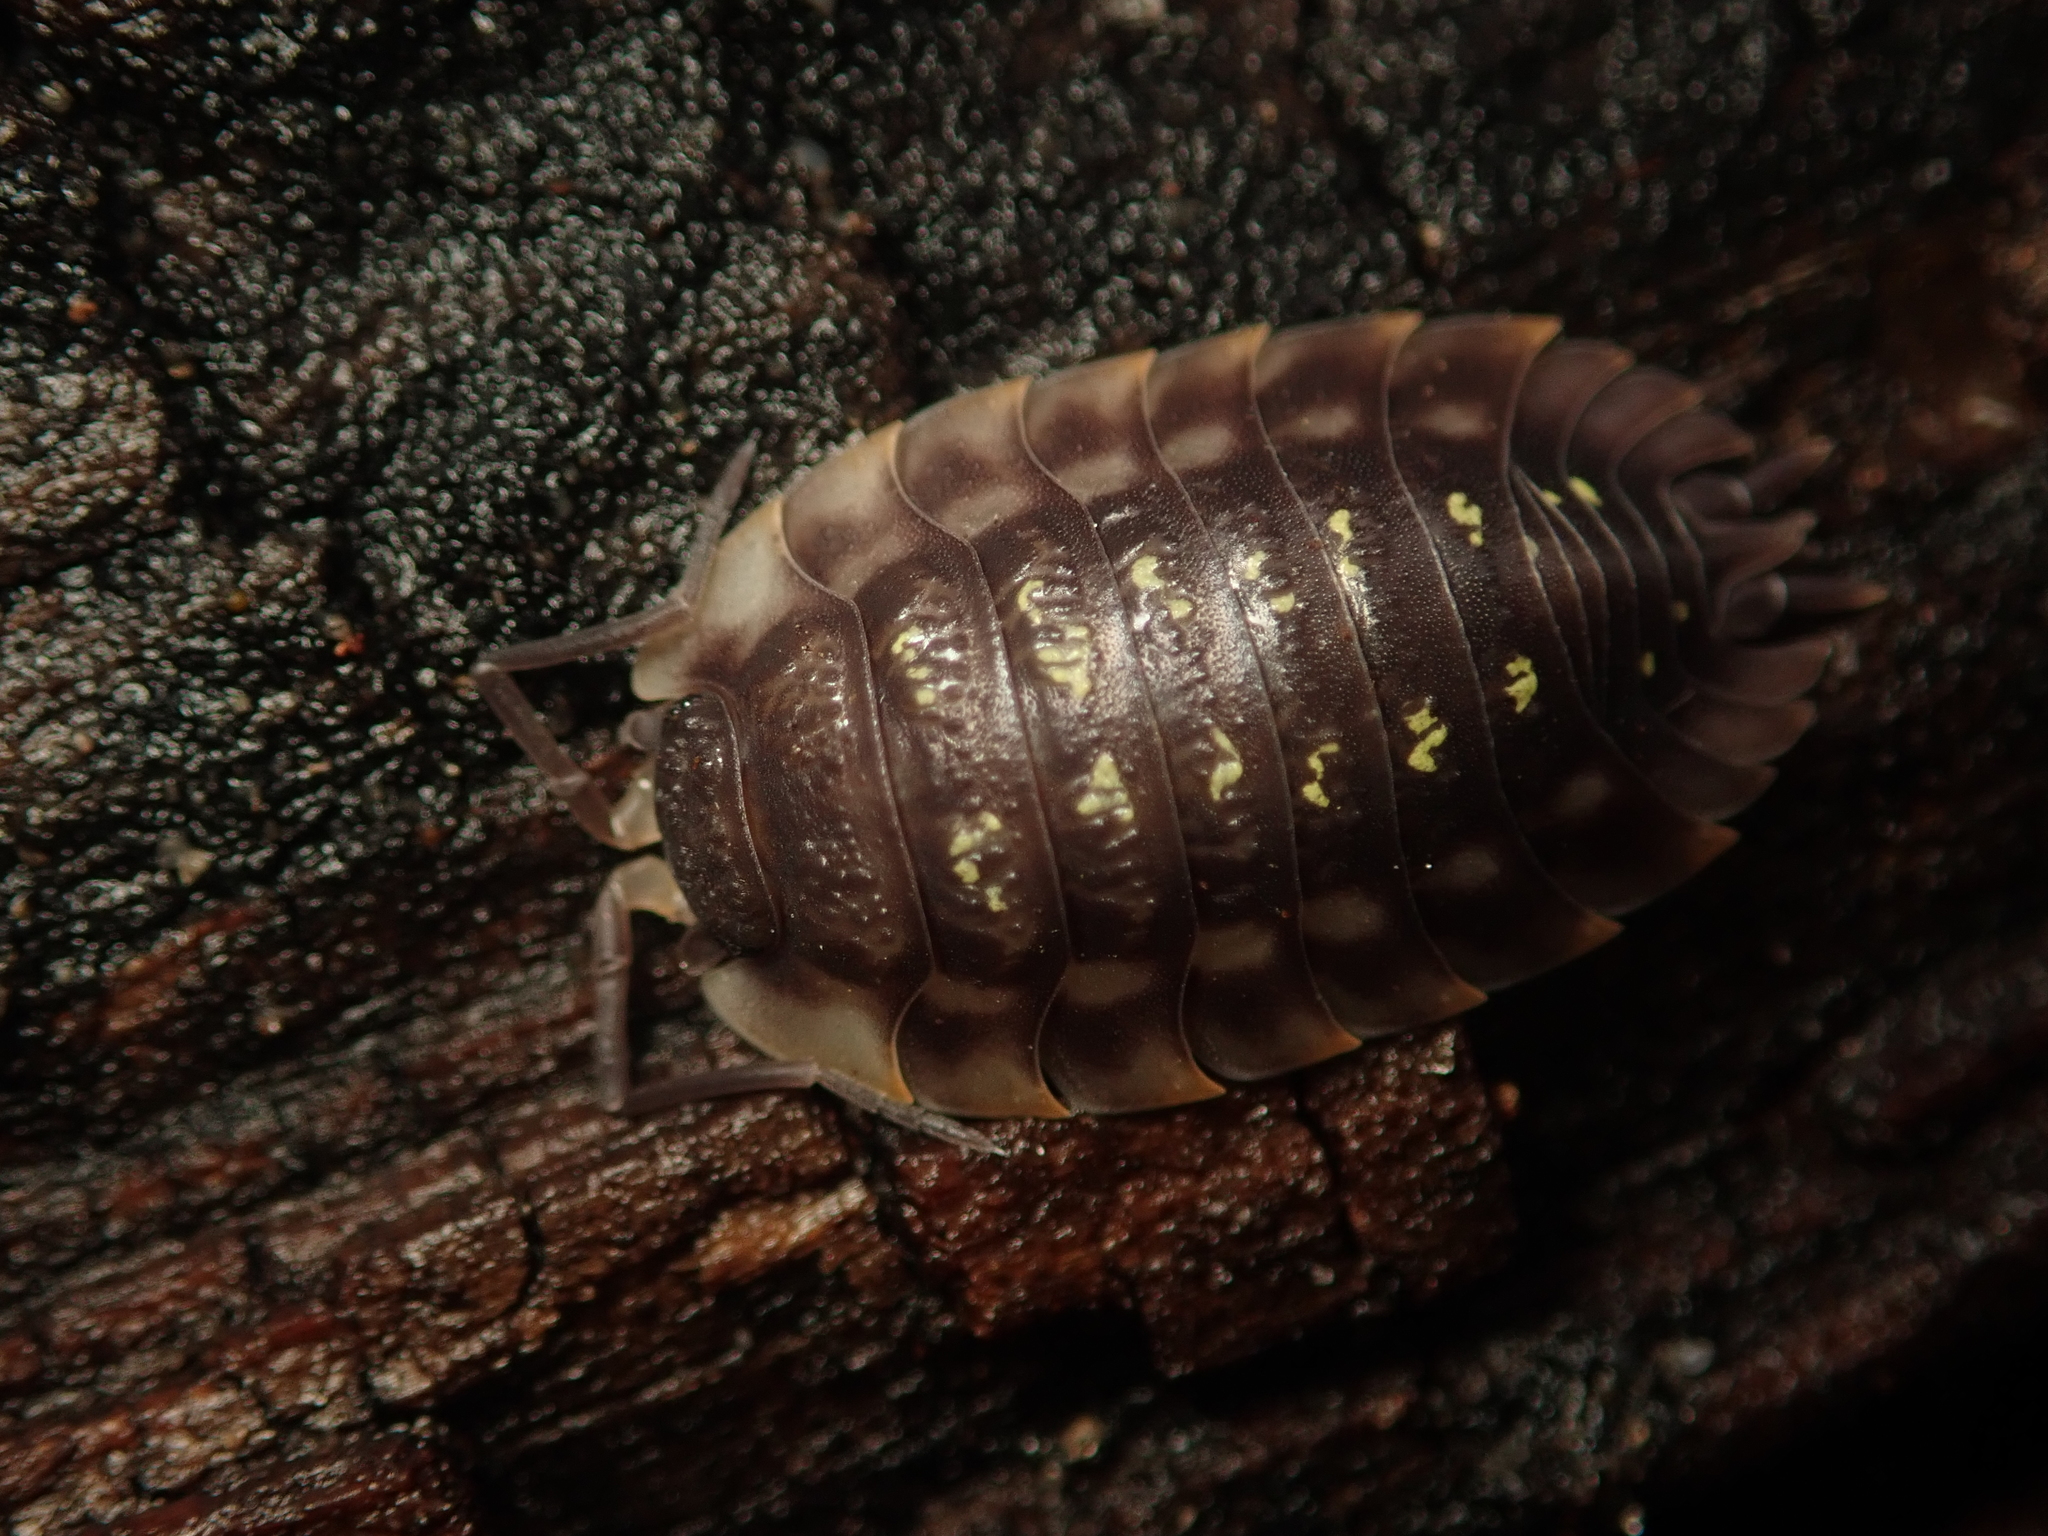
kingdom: Animalia
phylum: Arthropoda
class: Malacostraca
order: Isopoda
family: Oniscidae
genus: Oniscus
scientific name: Oniscus asellus
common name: Common shiny woodlouse
